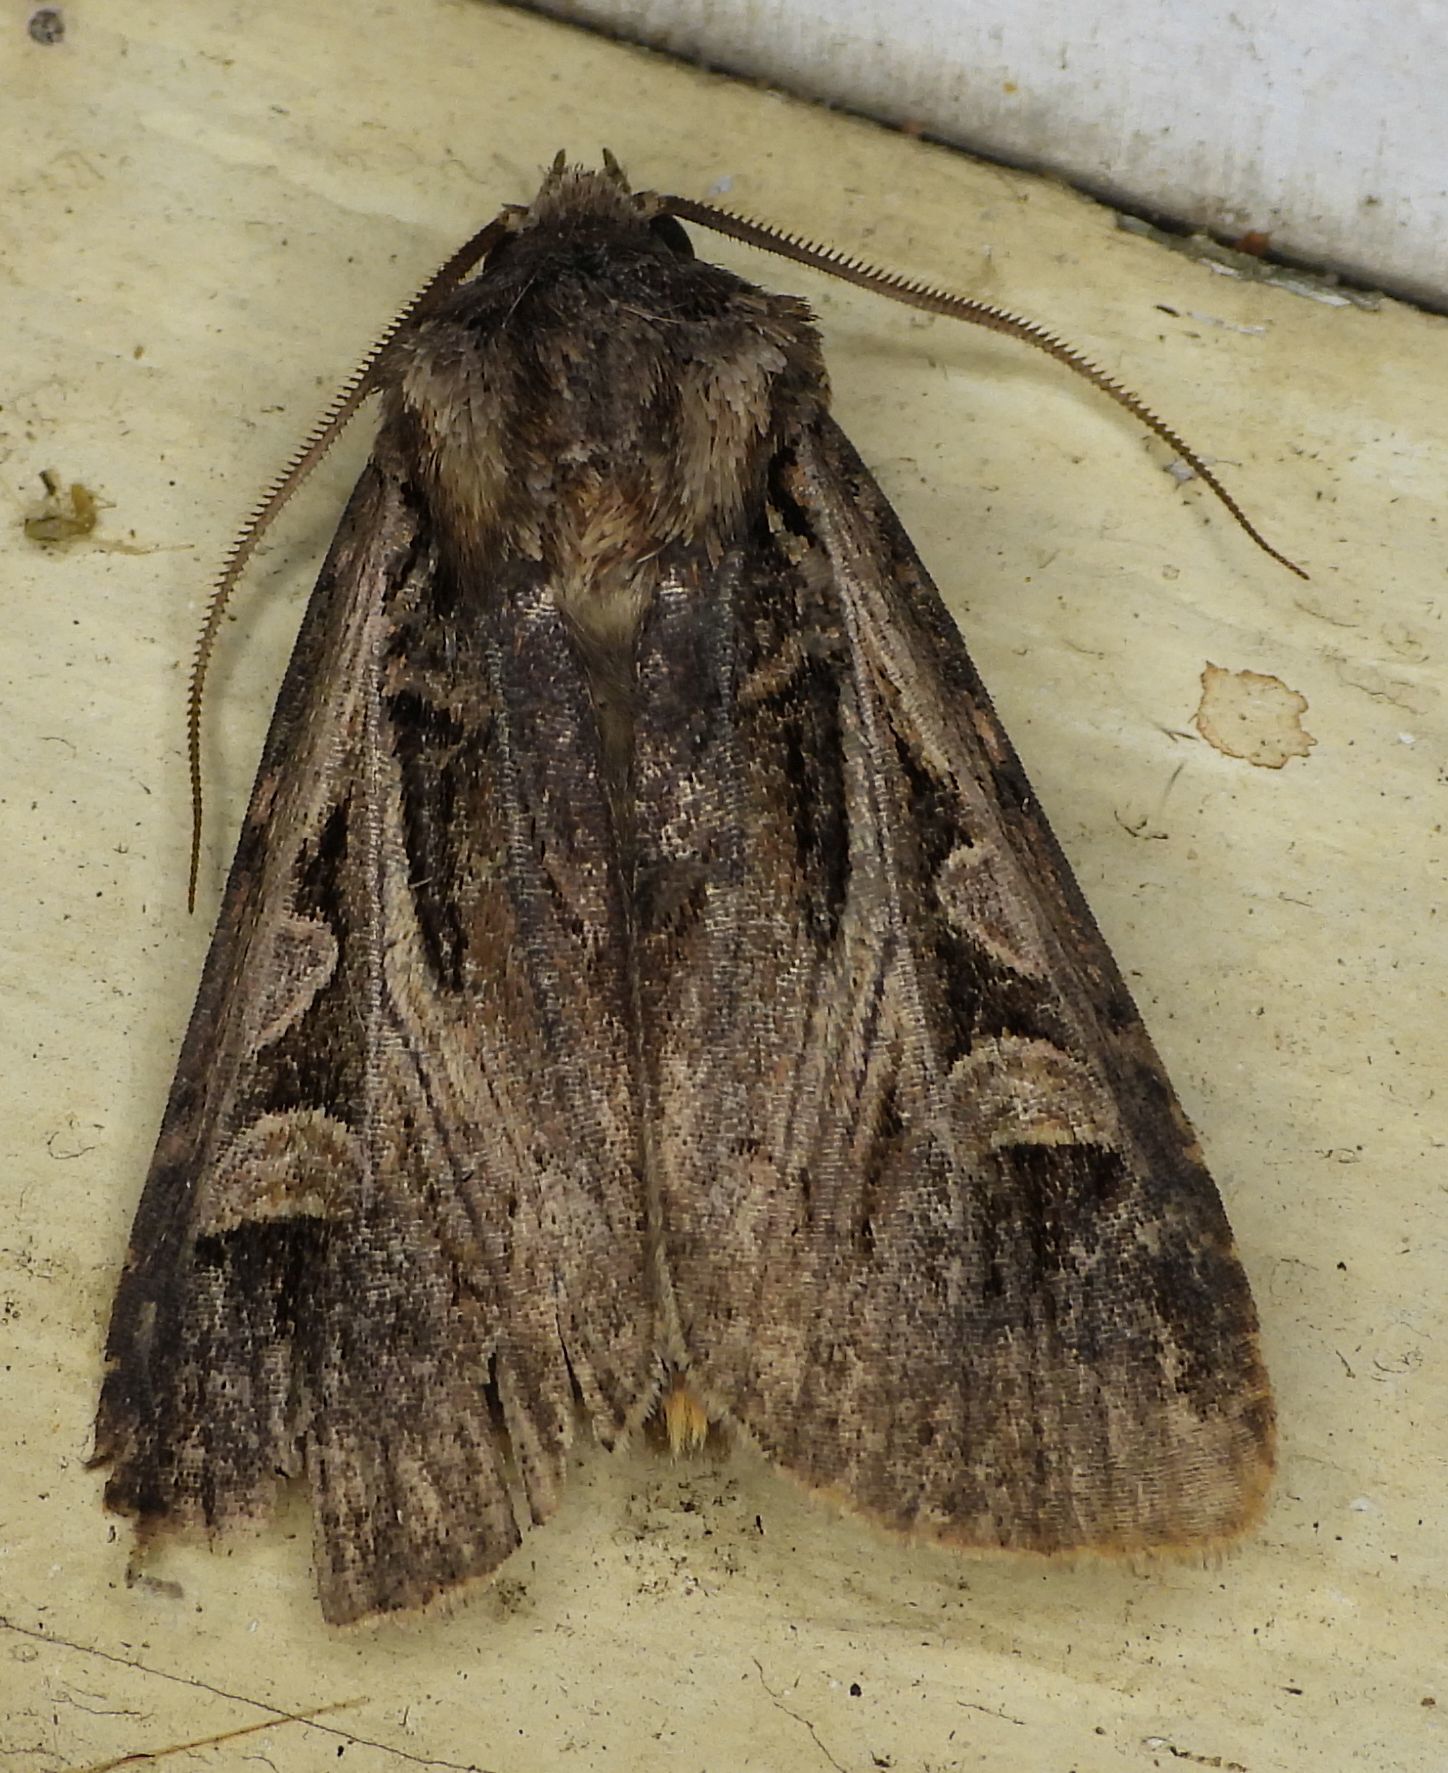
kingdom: Animalia
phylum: Arthropoda
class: Insecta
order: Lepidoptera
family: Noctuidae
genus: Feltia
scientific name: Feltia tricosa
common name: Confused dart moth
